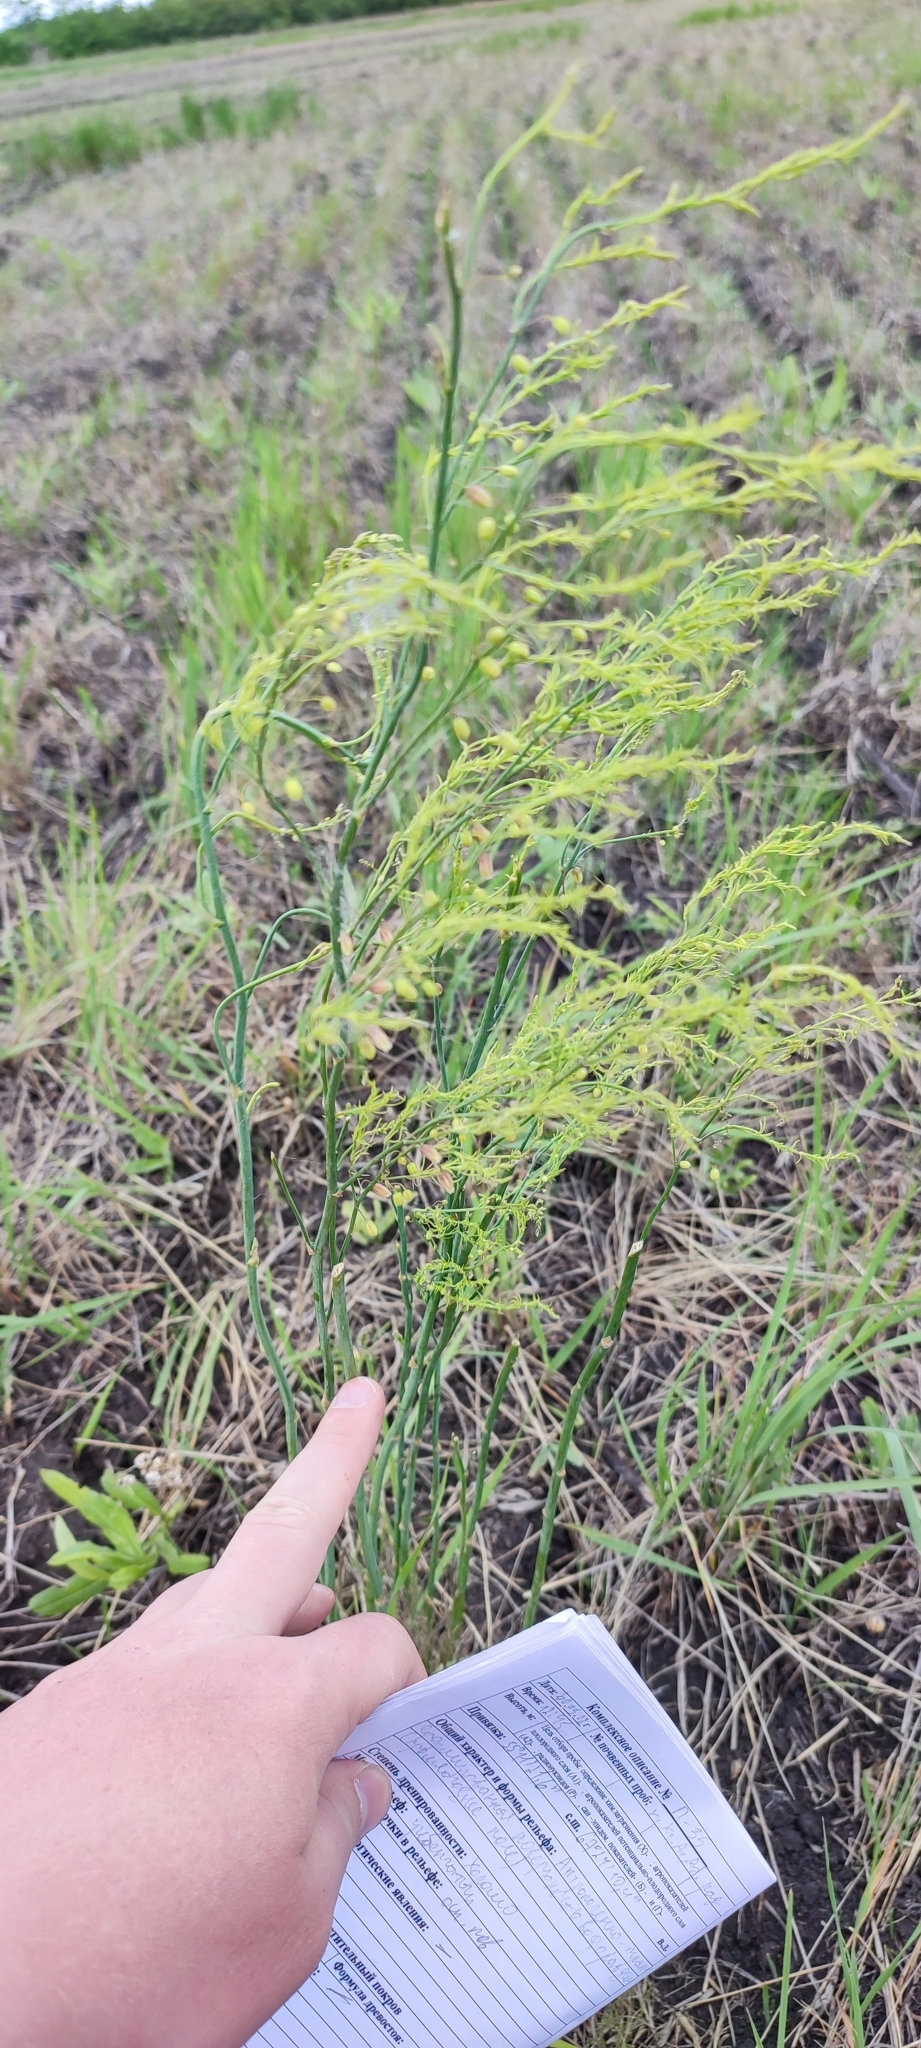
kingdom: Plantae
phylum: Tracheophyta
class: Liliopsida
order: Asparagales
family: Asparagaceae
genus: Asparagus
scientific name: Asparagus officinalis
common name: Garden asparagus
